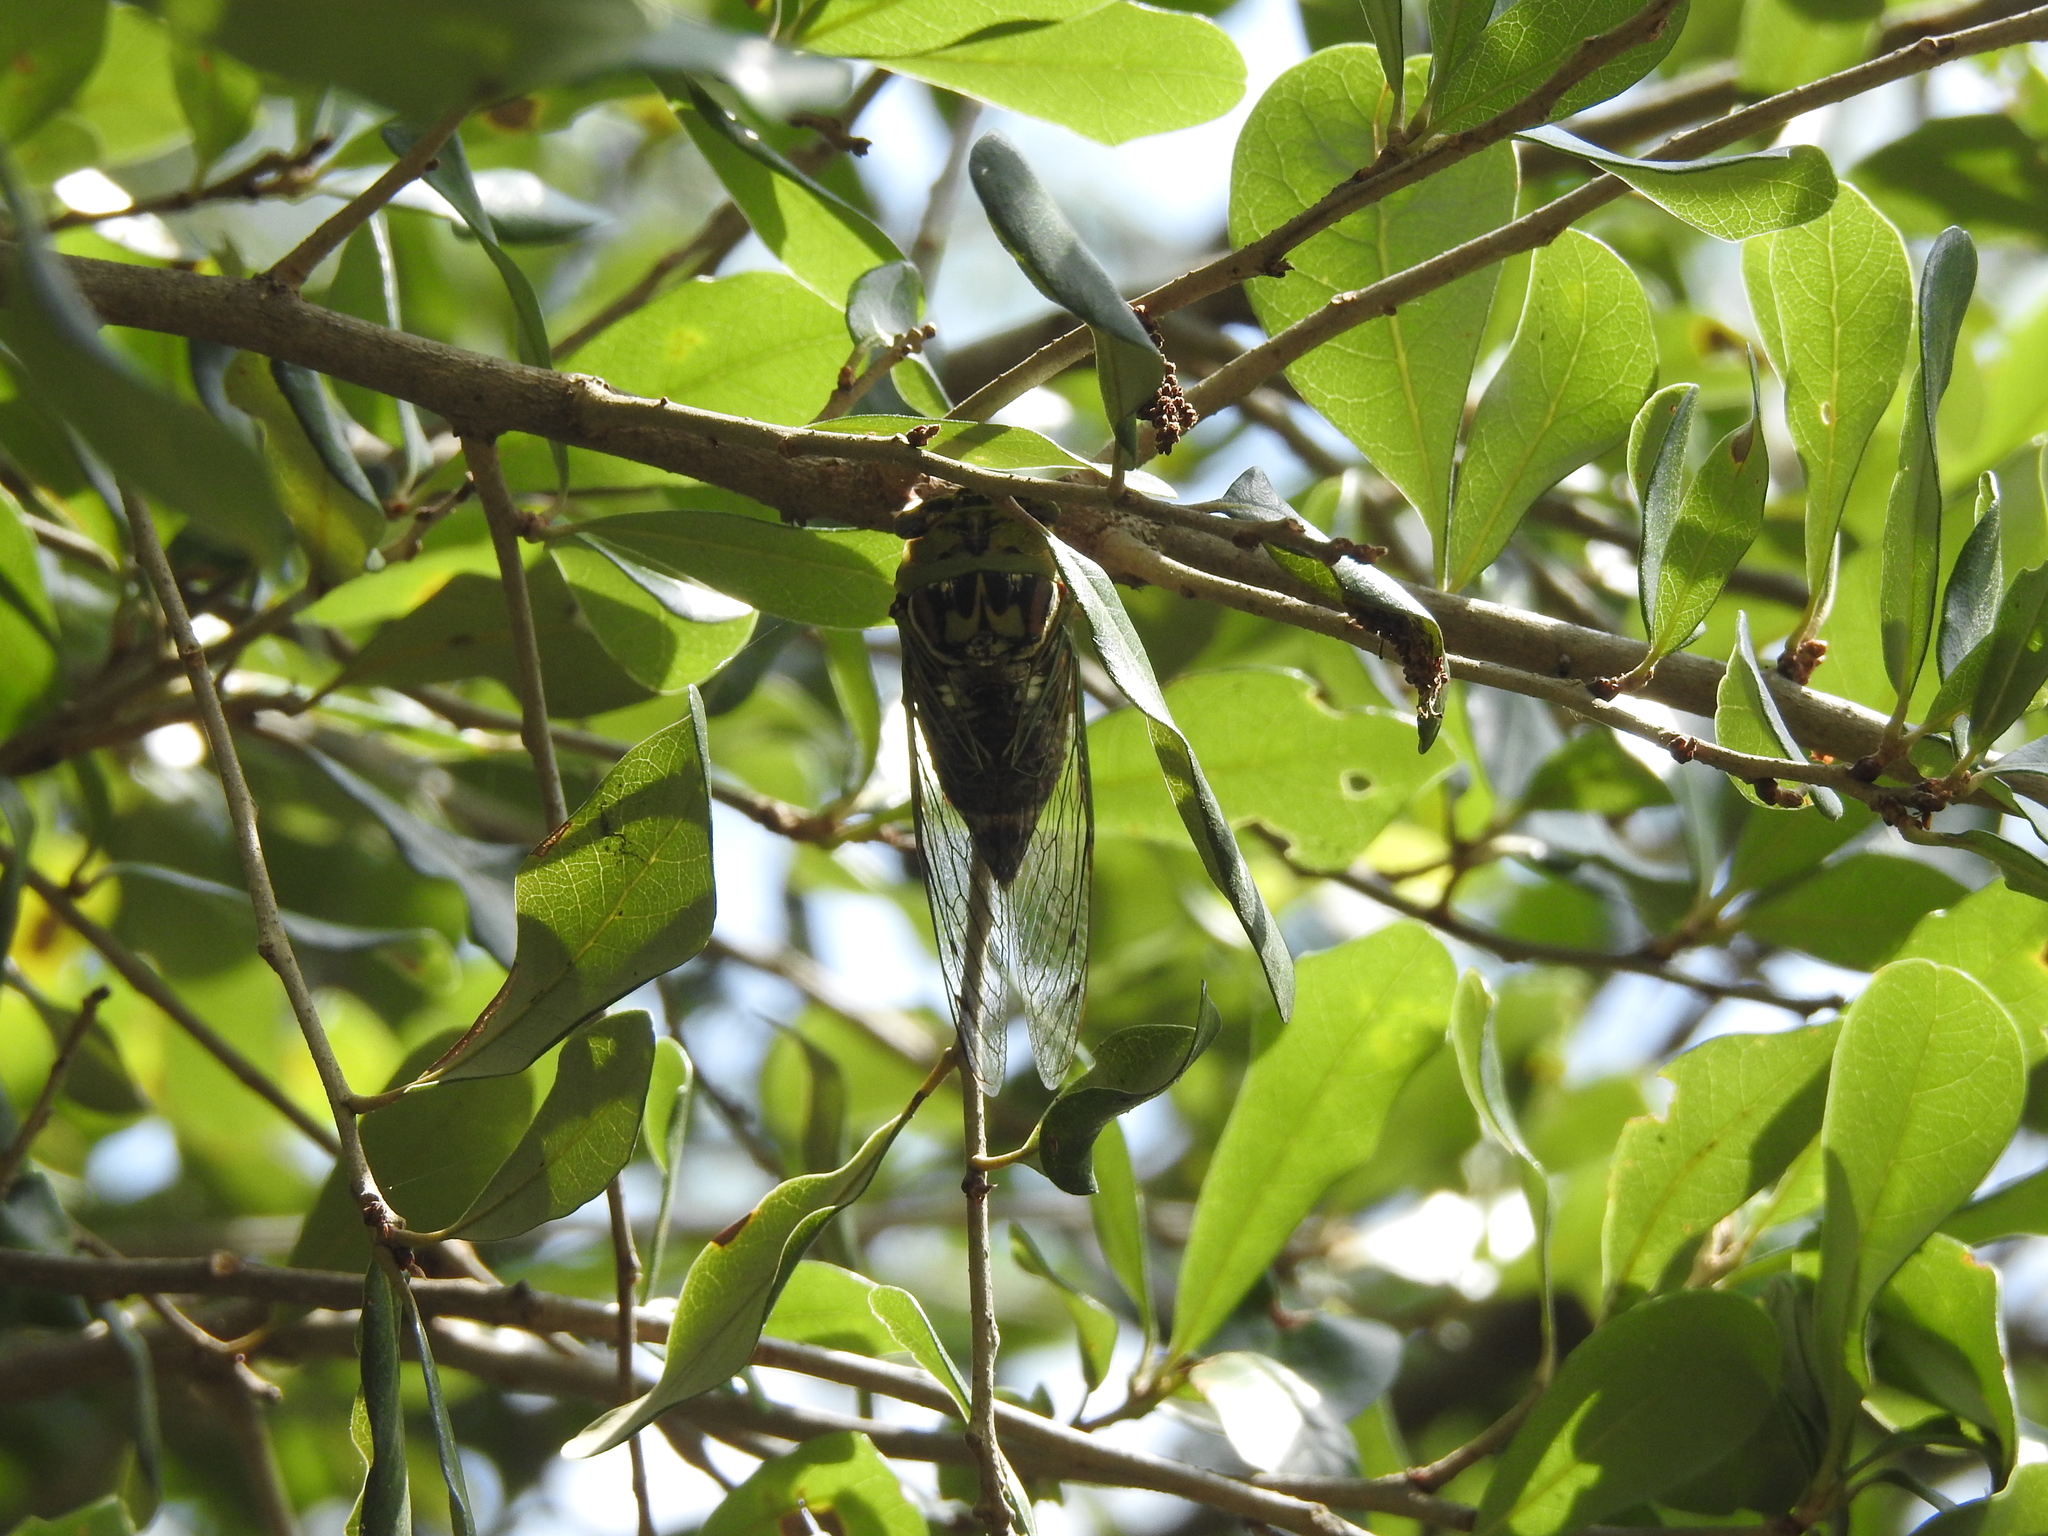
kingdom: Animalia
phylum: Arthropoda
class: Insecta
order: Hemiptera
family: Cicadidae
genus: Megatibicen
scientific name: Megatibicen resh
